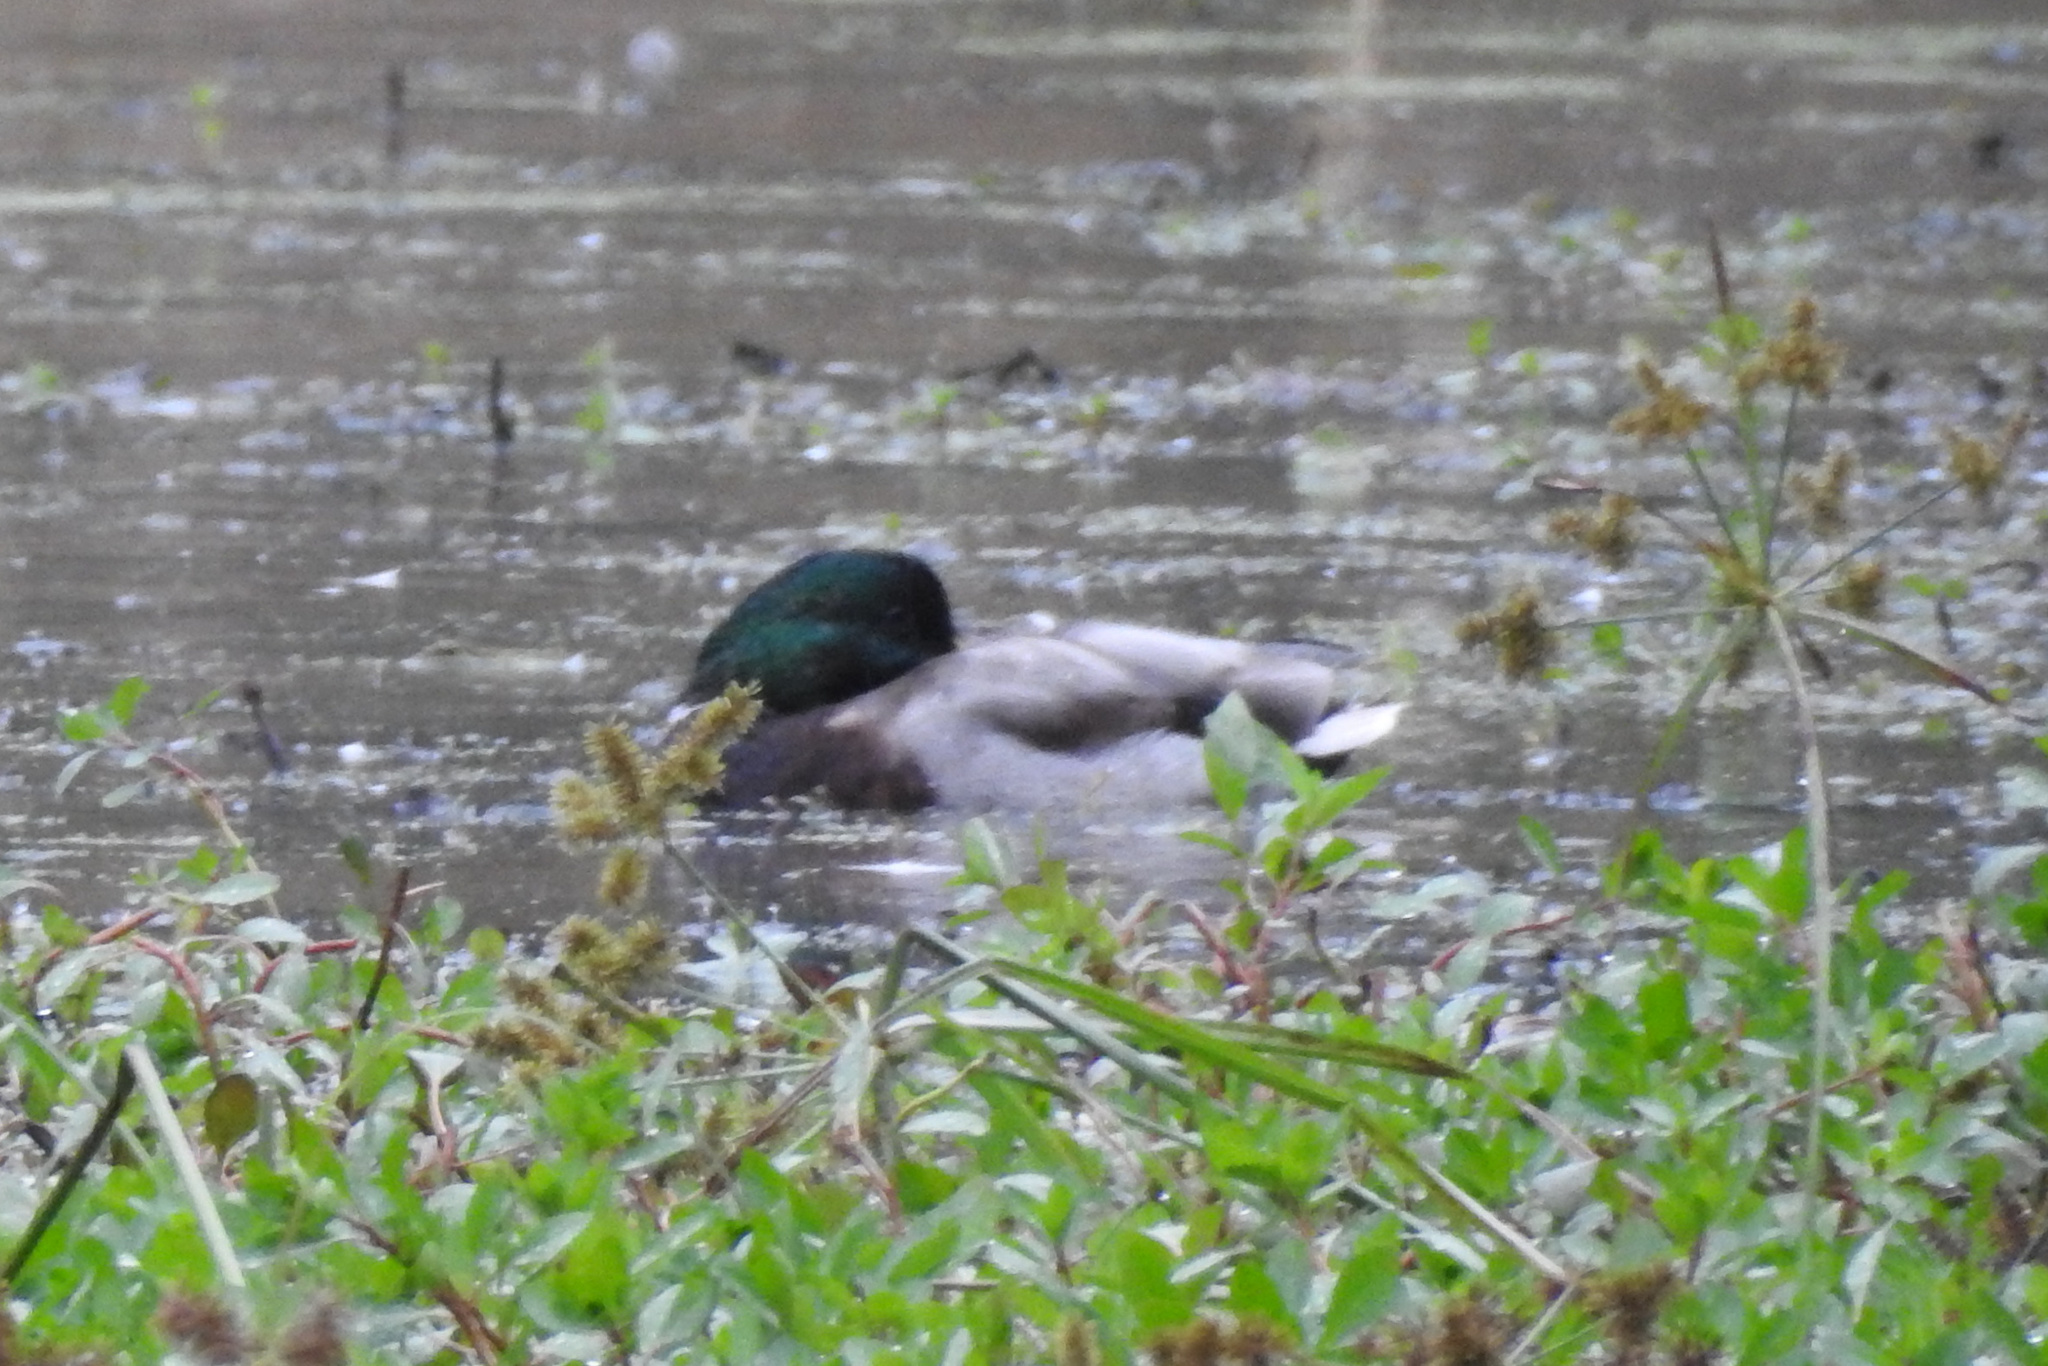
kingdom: Animalia
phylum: Chordata
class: Aves
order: Anseriformes
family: Anatidae
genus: Anas
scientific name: Anas platyrhynchos
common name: Mallard
